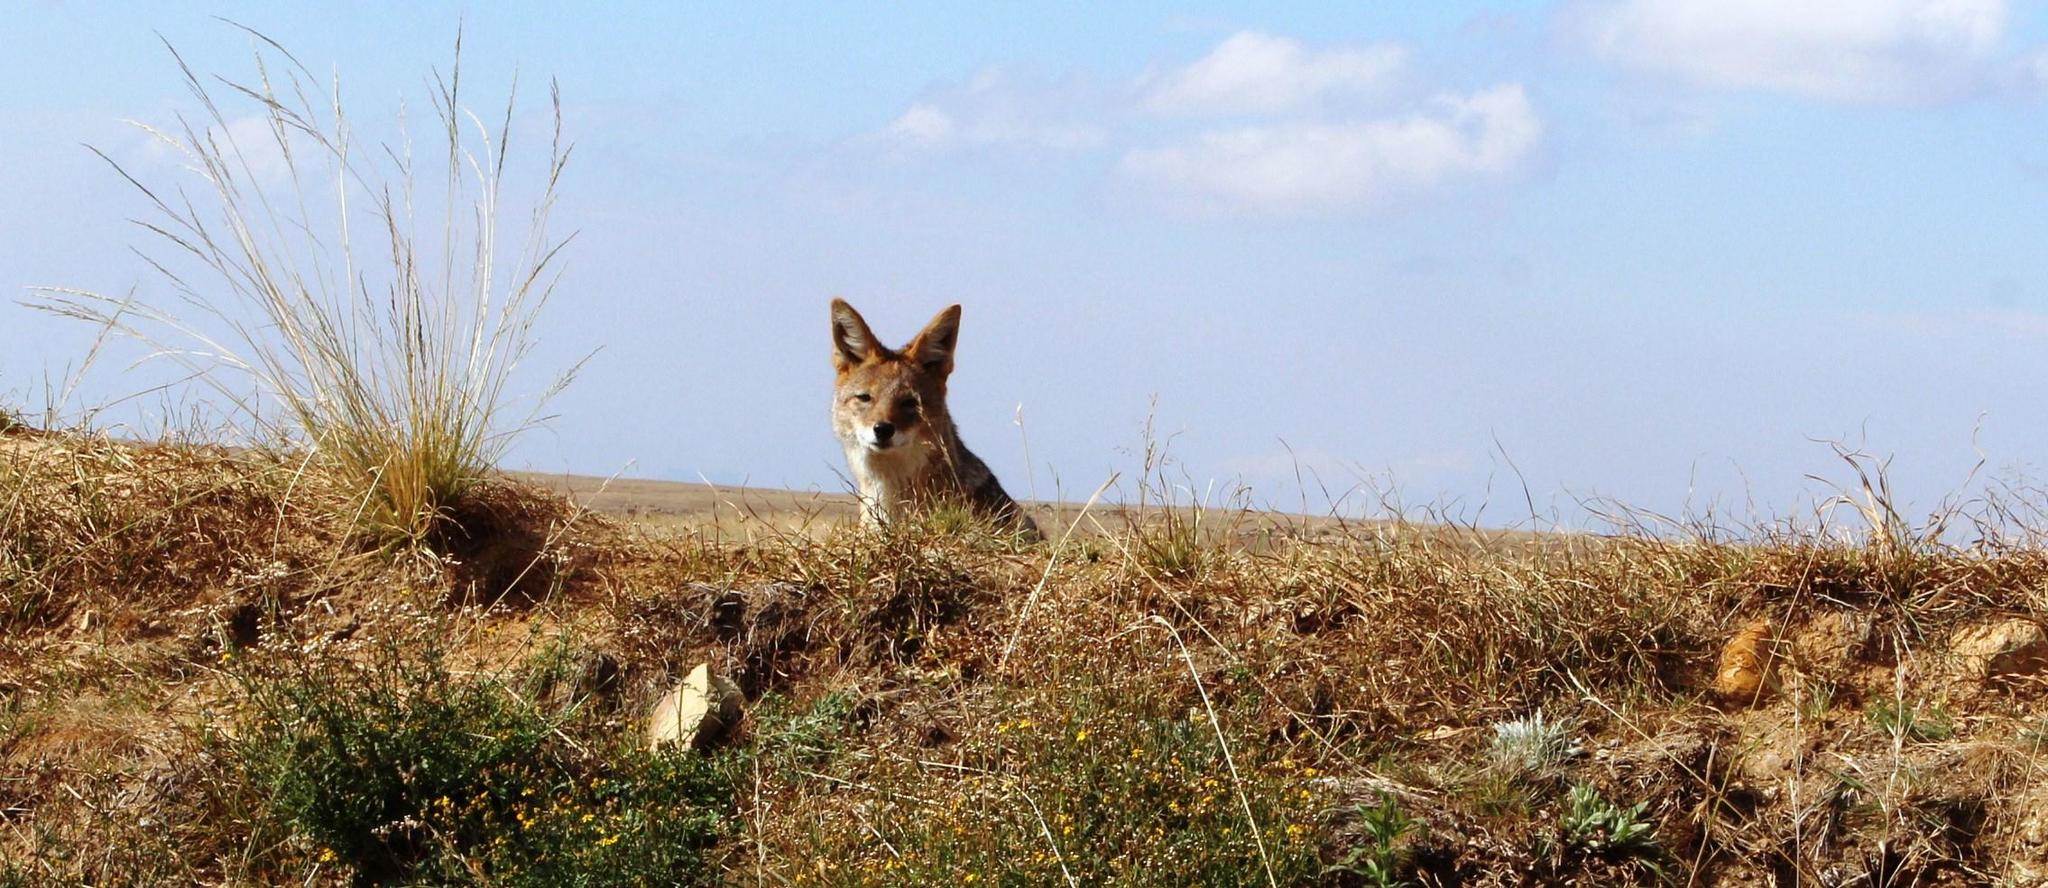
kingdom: Animalia
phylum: Chordata
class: Mammalia
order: Carnivora
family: Canidae
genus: Lupulella
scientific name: Lupulella
